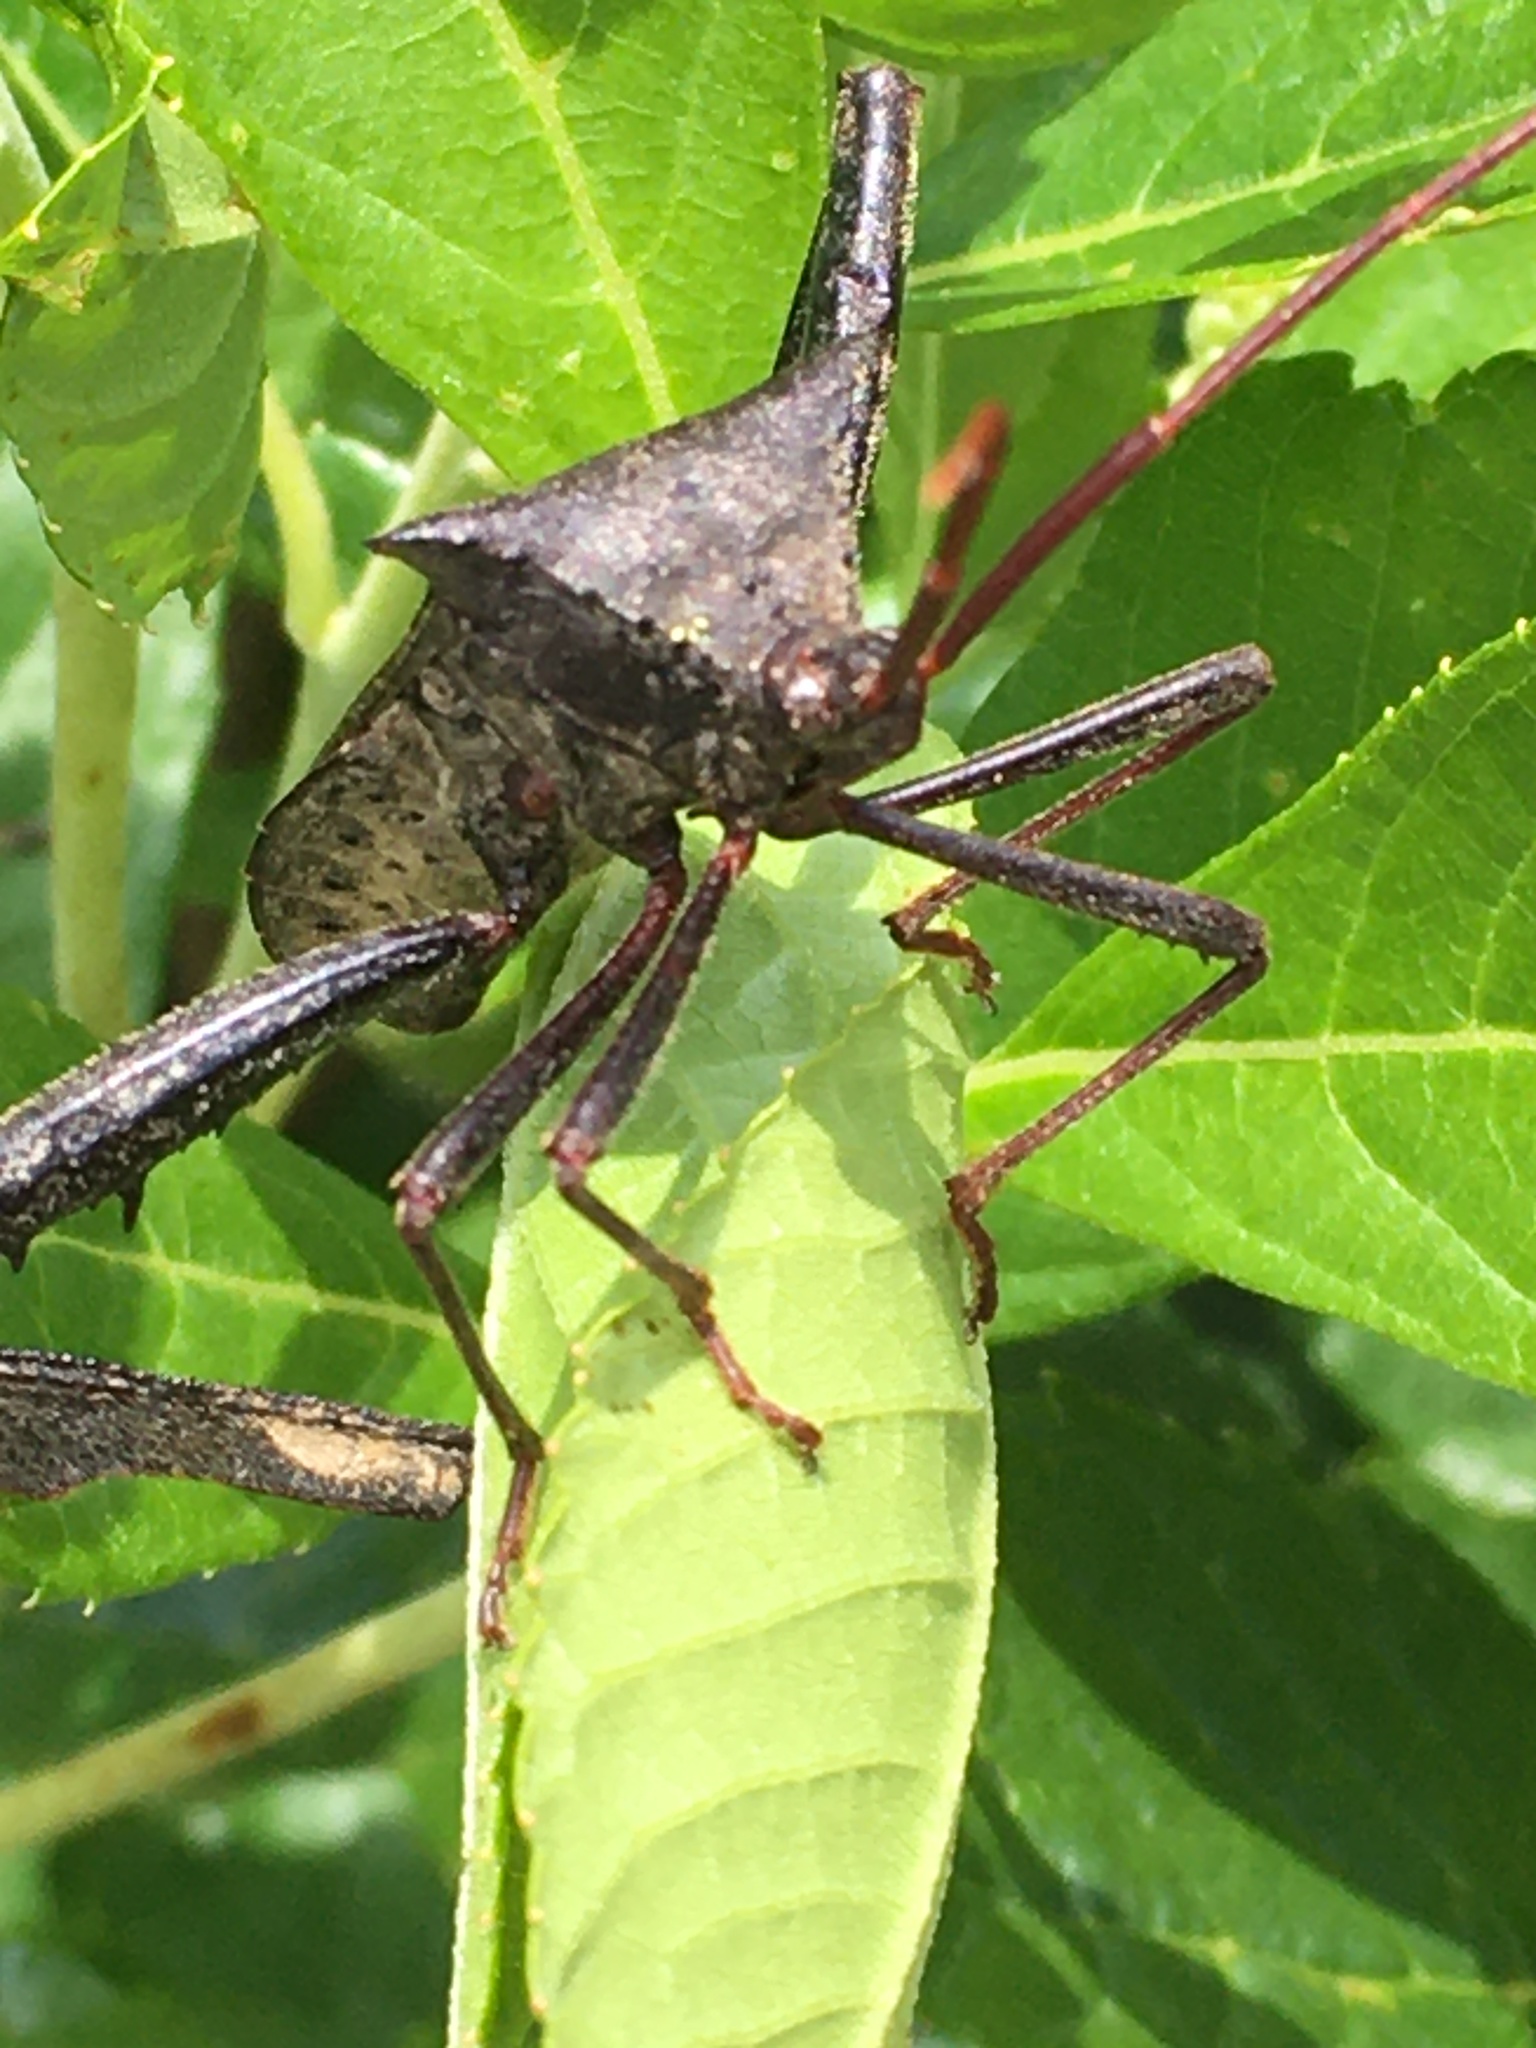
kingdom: Animalia
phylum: Arthropoda
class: Insecta
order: Hemiptera
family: Coreidae
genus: Acanthocephala
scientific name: Acanthocephala declivis
